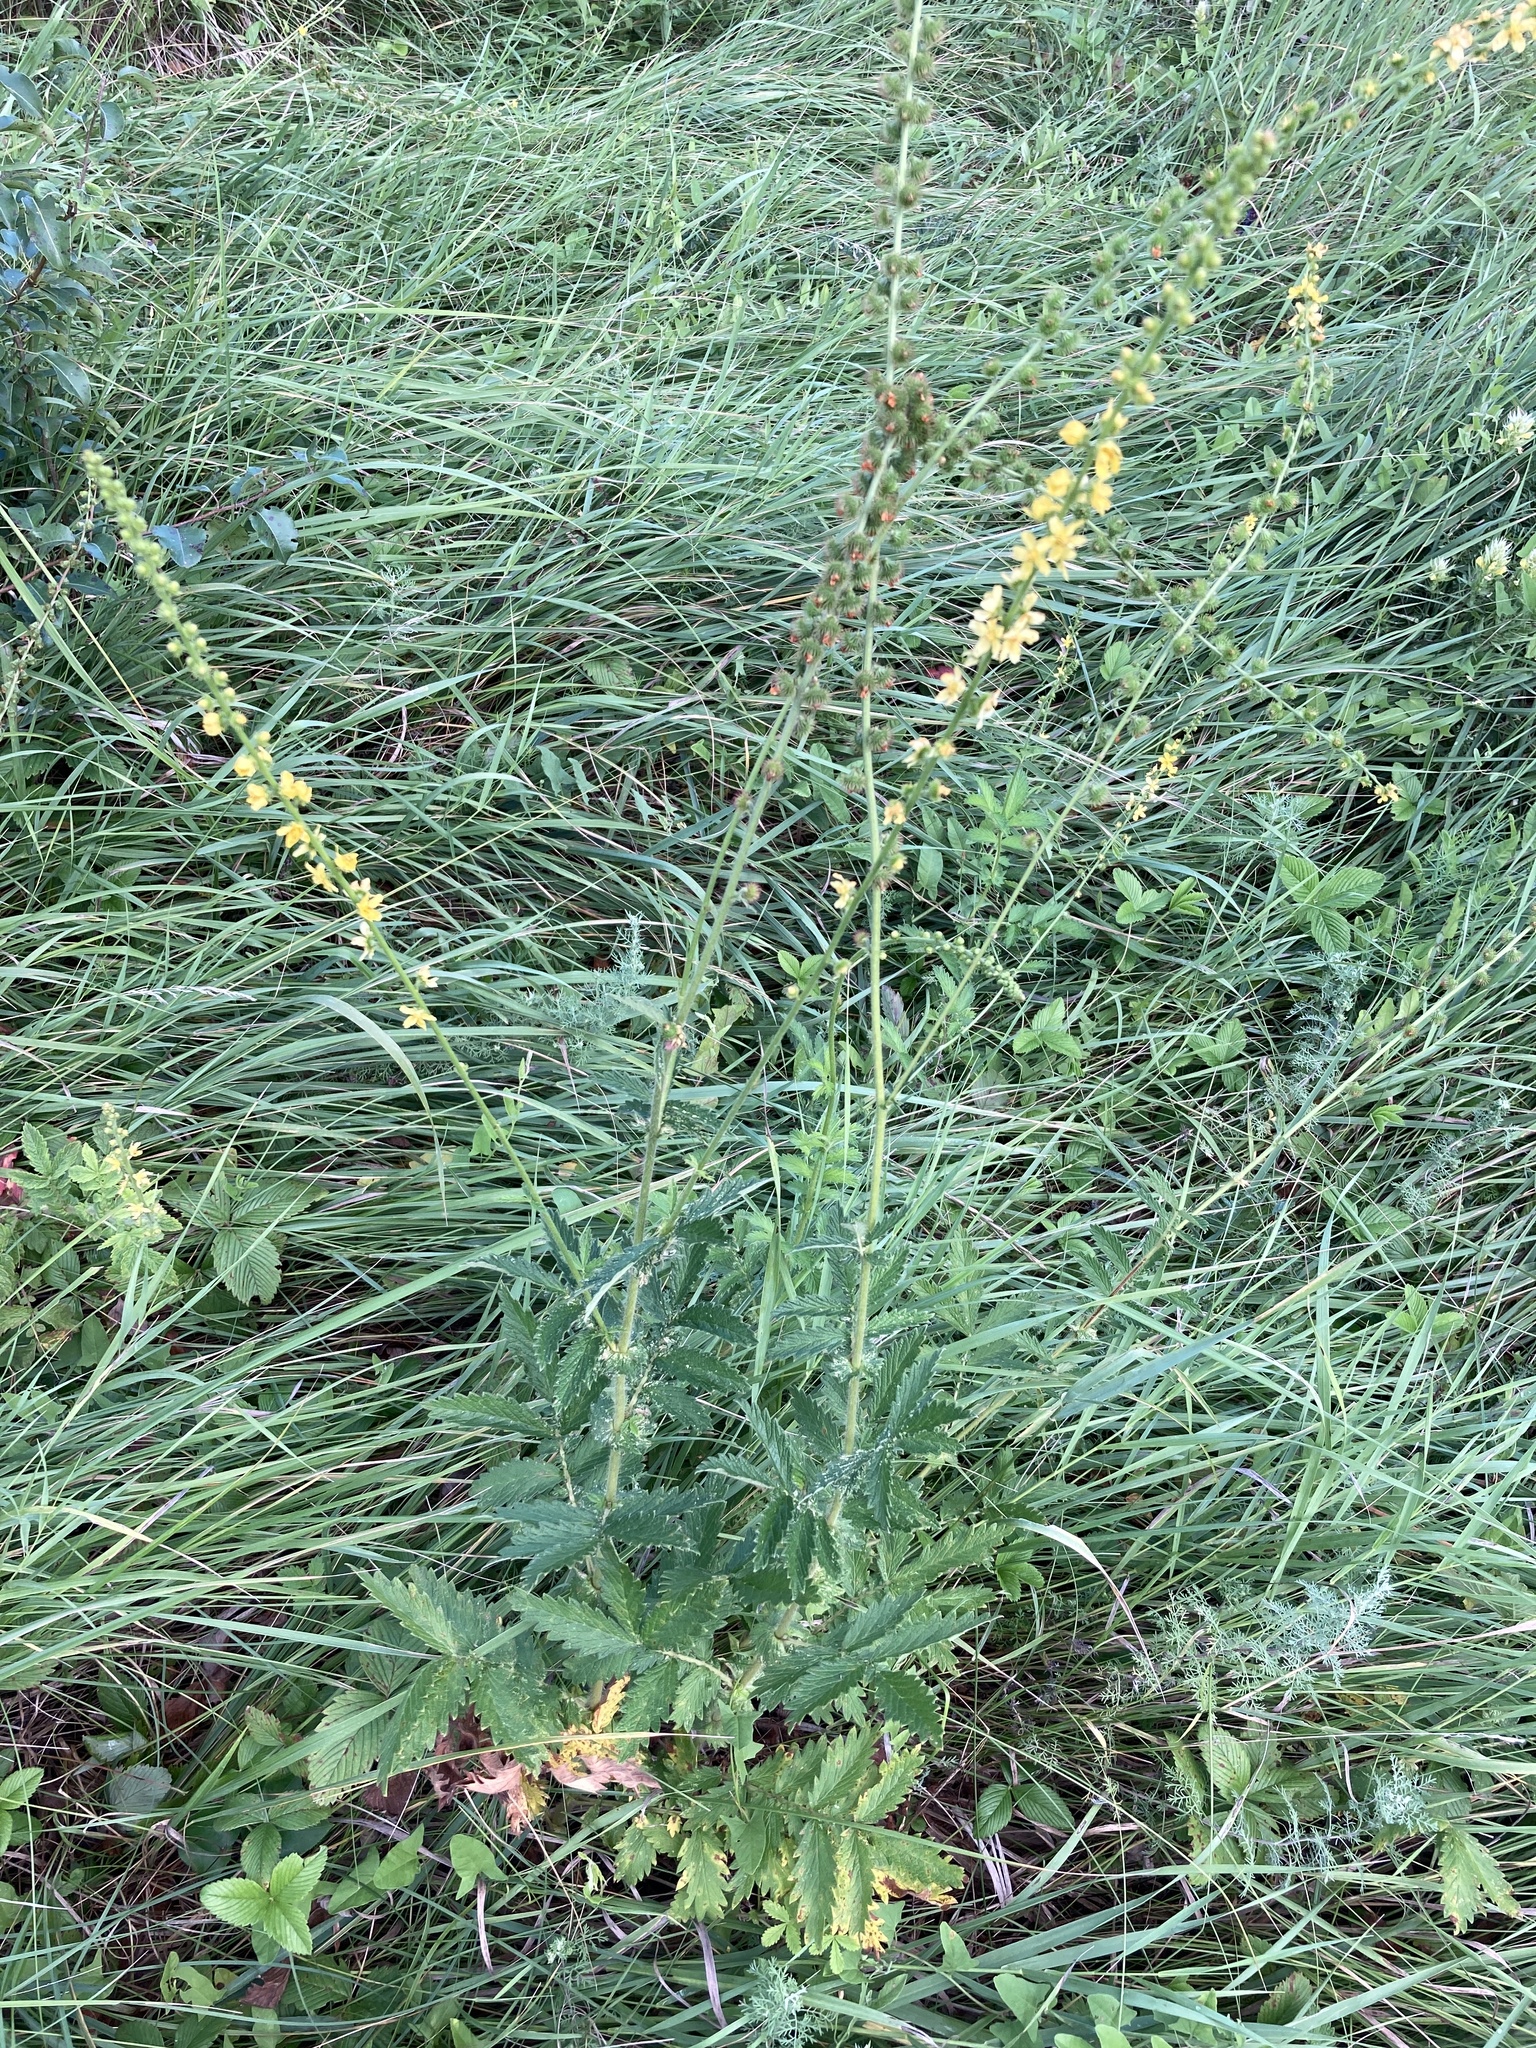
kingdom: Plantae
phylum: Tracheophyta
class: Magnoliopsida
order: Rosales
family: Rosaceae
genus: Agrimonia
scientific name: Agrimonia eupatoria
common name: Agrimony
